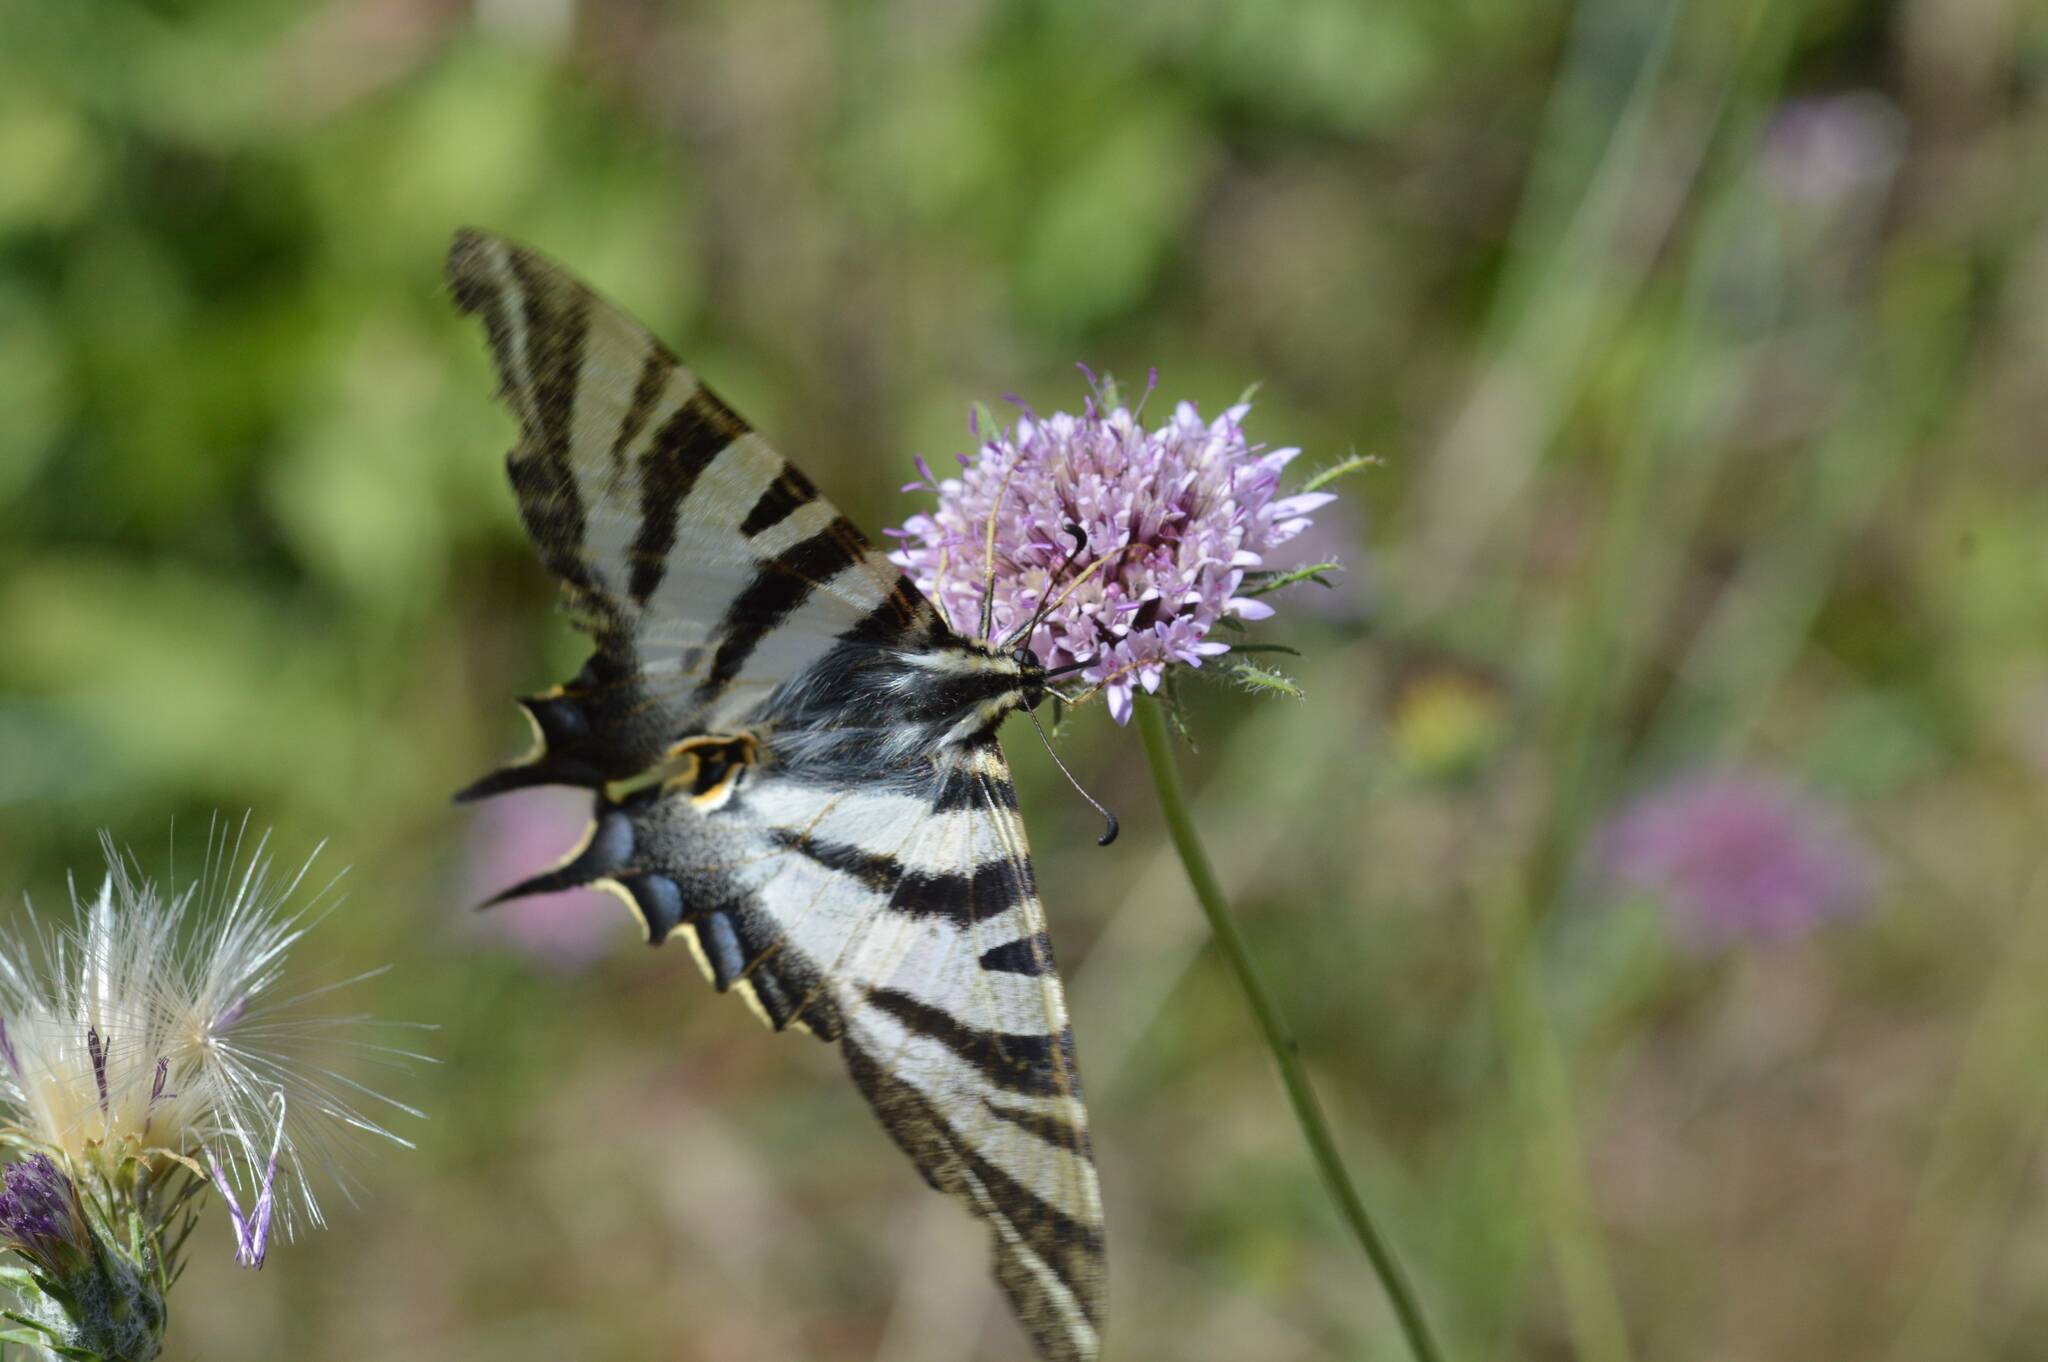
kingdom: Animalia
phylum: Arthropoda
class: Insecta
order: Lepidoptera
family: Papilionidae
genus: Iphiclides
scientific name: Iphiclides feisthamelii
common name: Iberian scarce swallowtail
